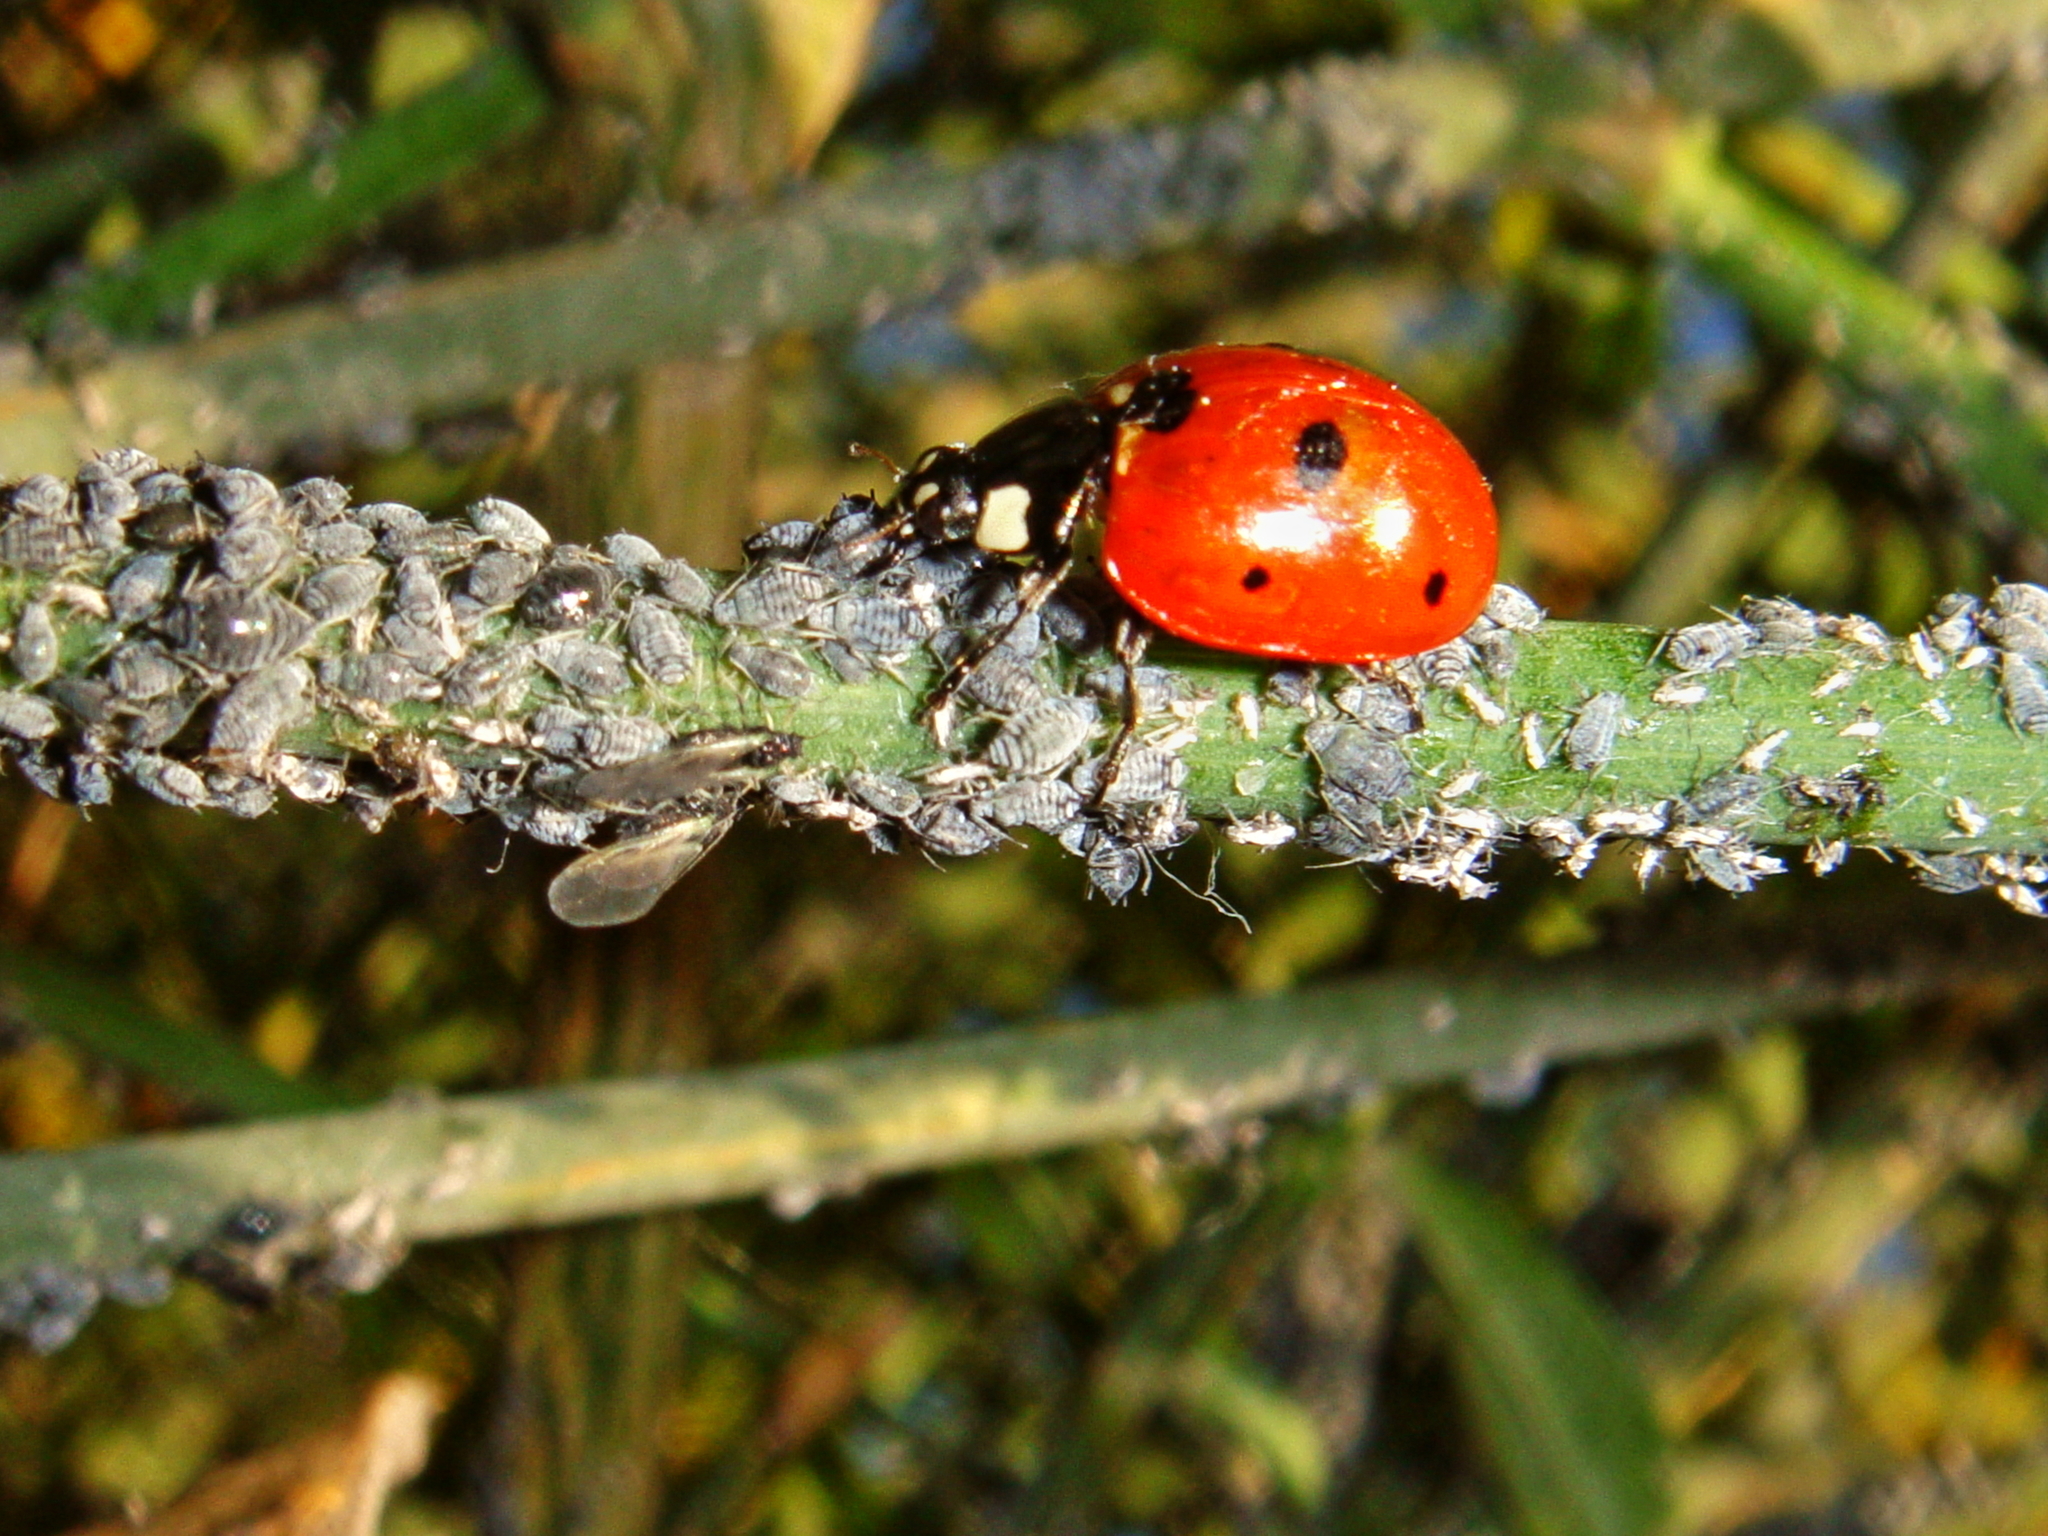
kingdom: Animalia
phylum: Arthropoda
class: Insecta
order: Coleoptera
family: Coccinellidae
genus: Coccinella
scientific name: Coccinella septempunctata
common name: Sevenspotted lady beetle
